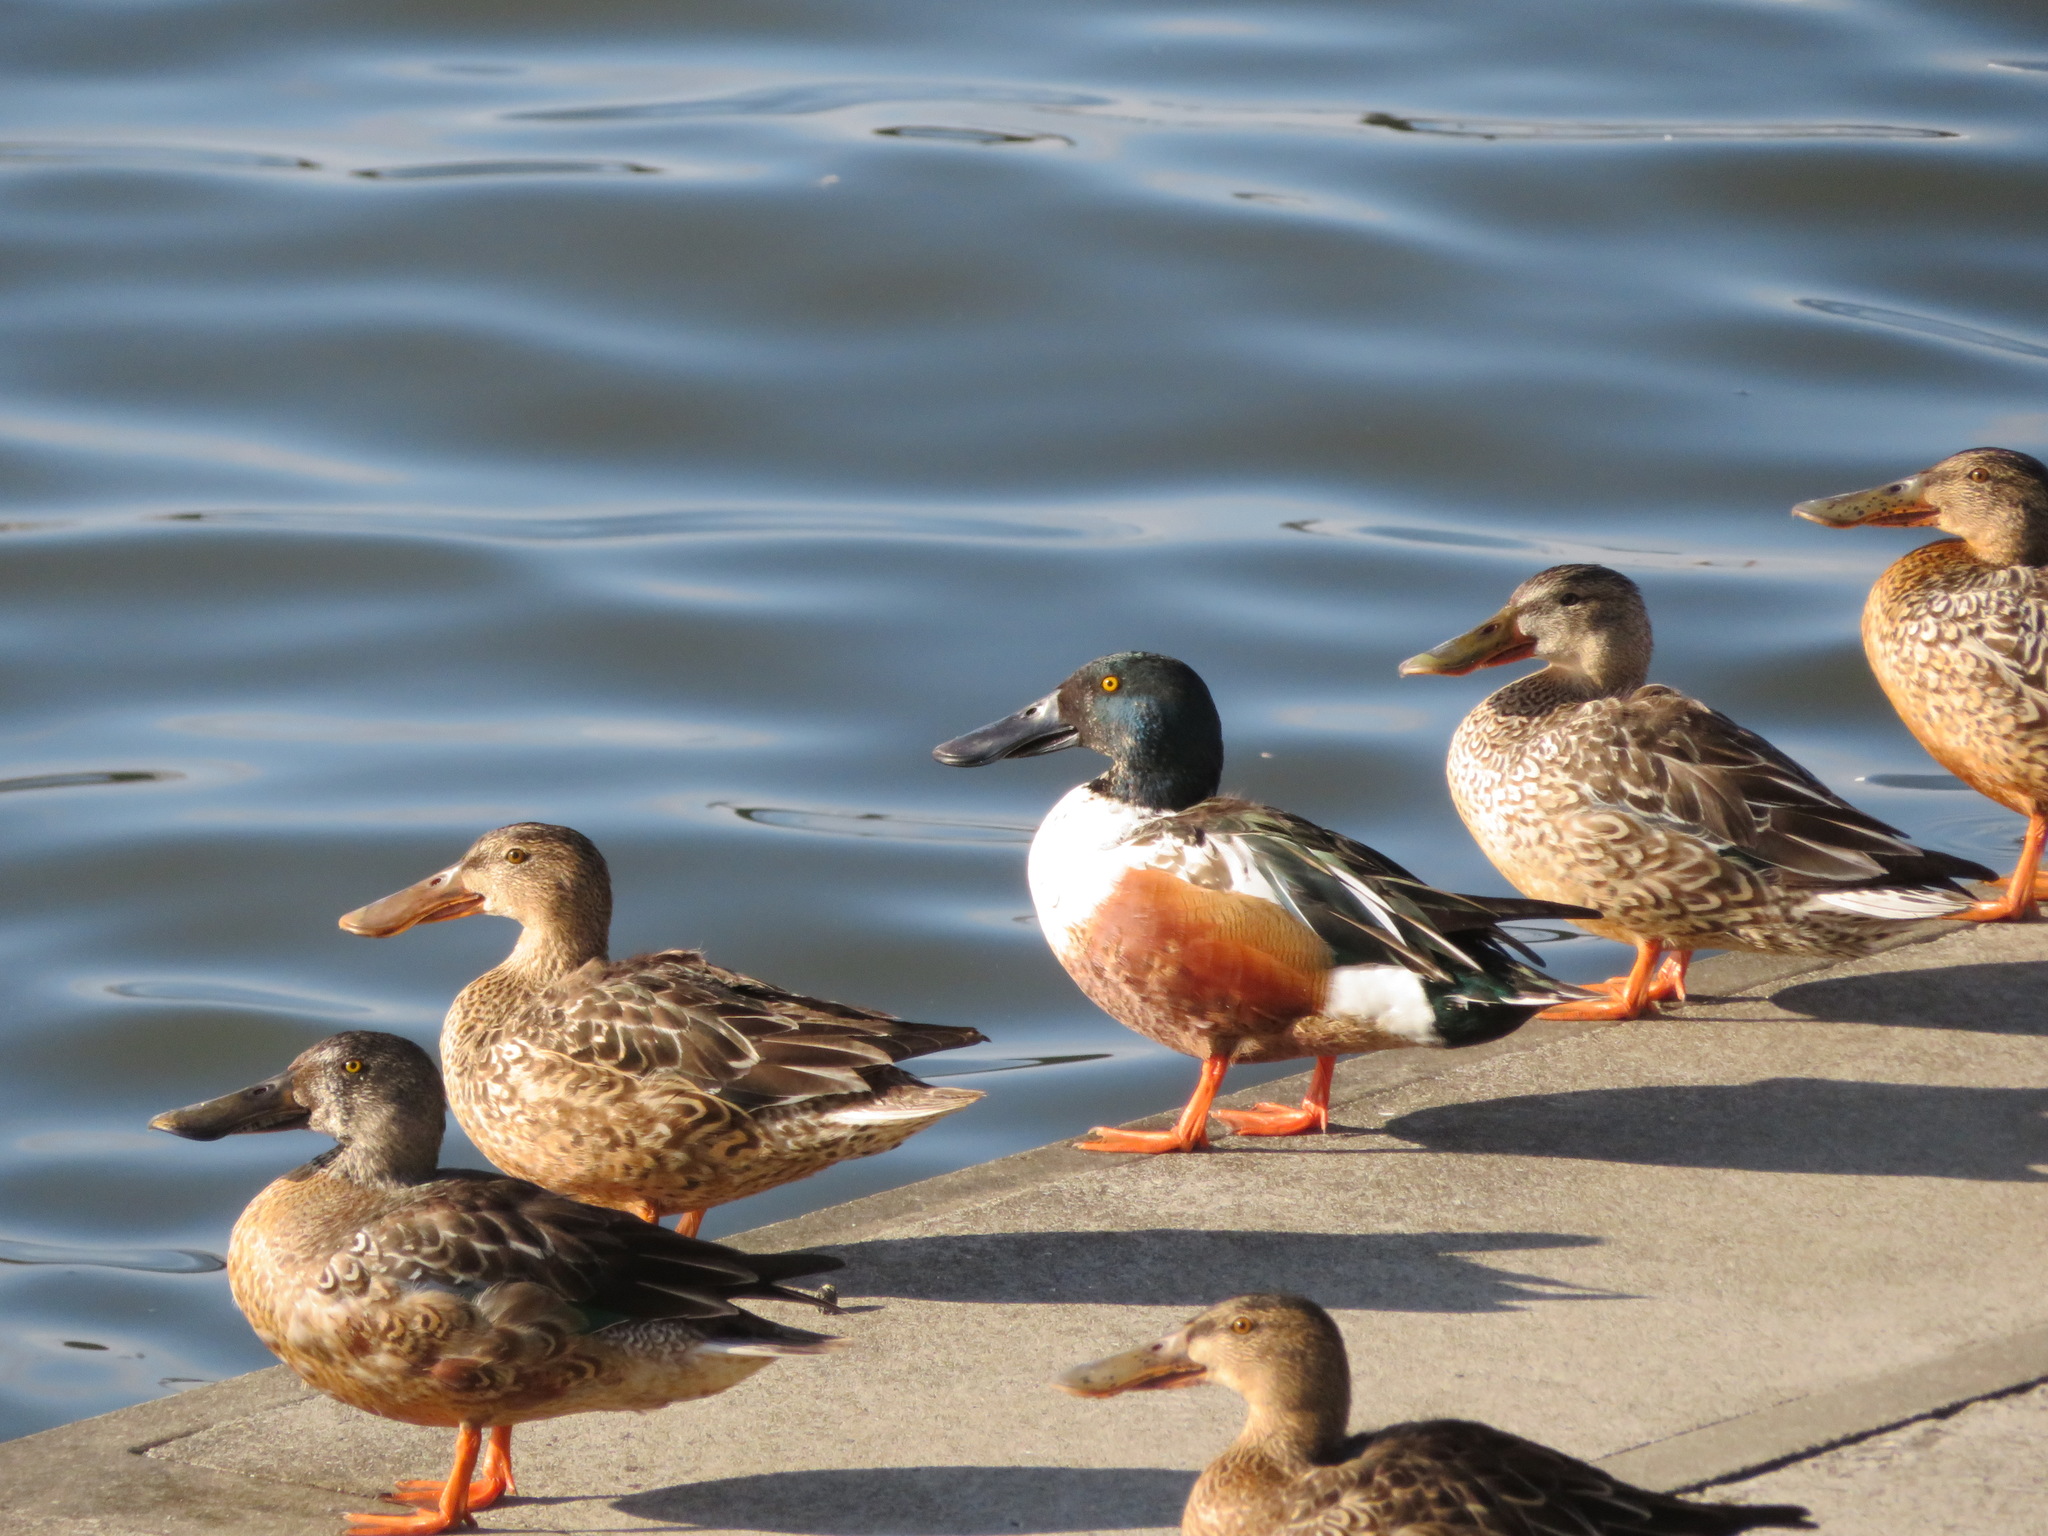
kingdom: Animalia
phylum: Chordata
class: Aves
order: Anseriformes
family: Anatidae
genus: Spatula
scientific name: Spatula clypeata
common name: Northern shoveler
